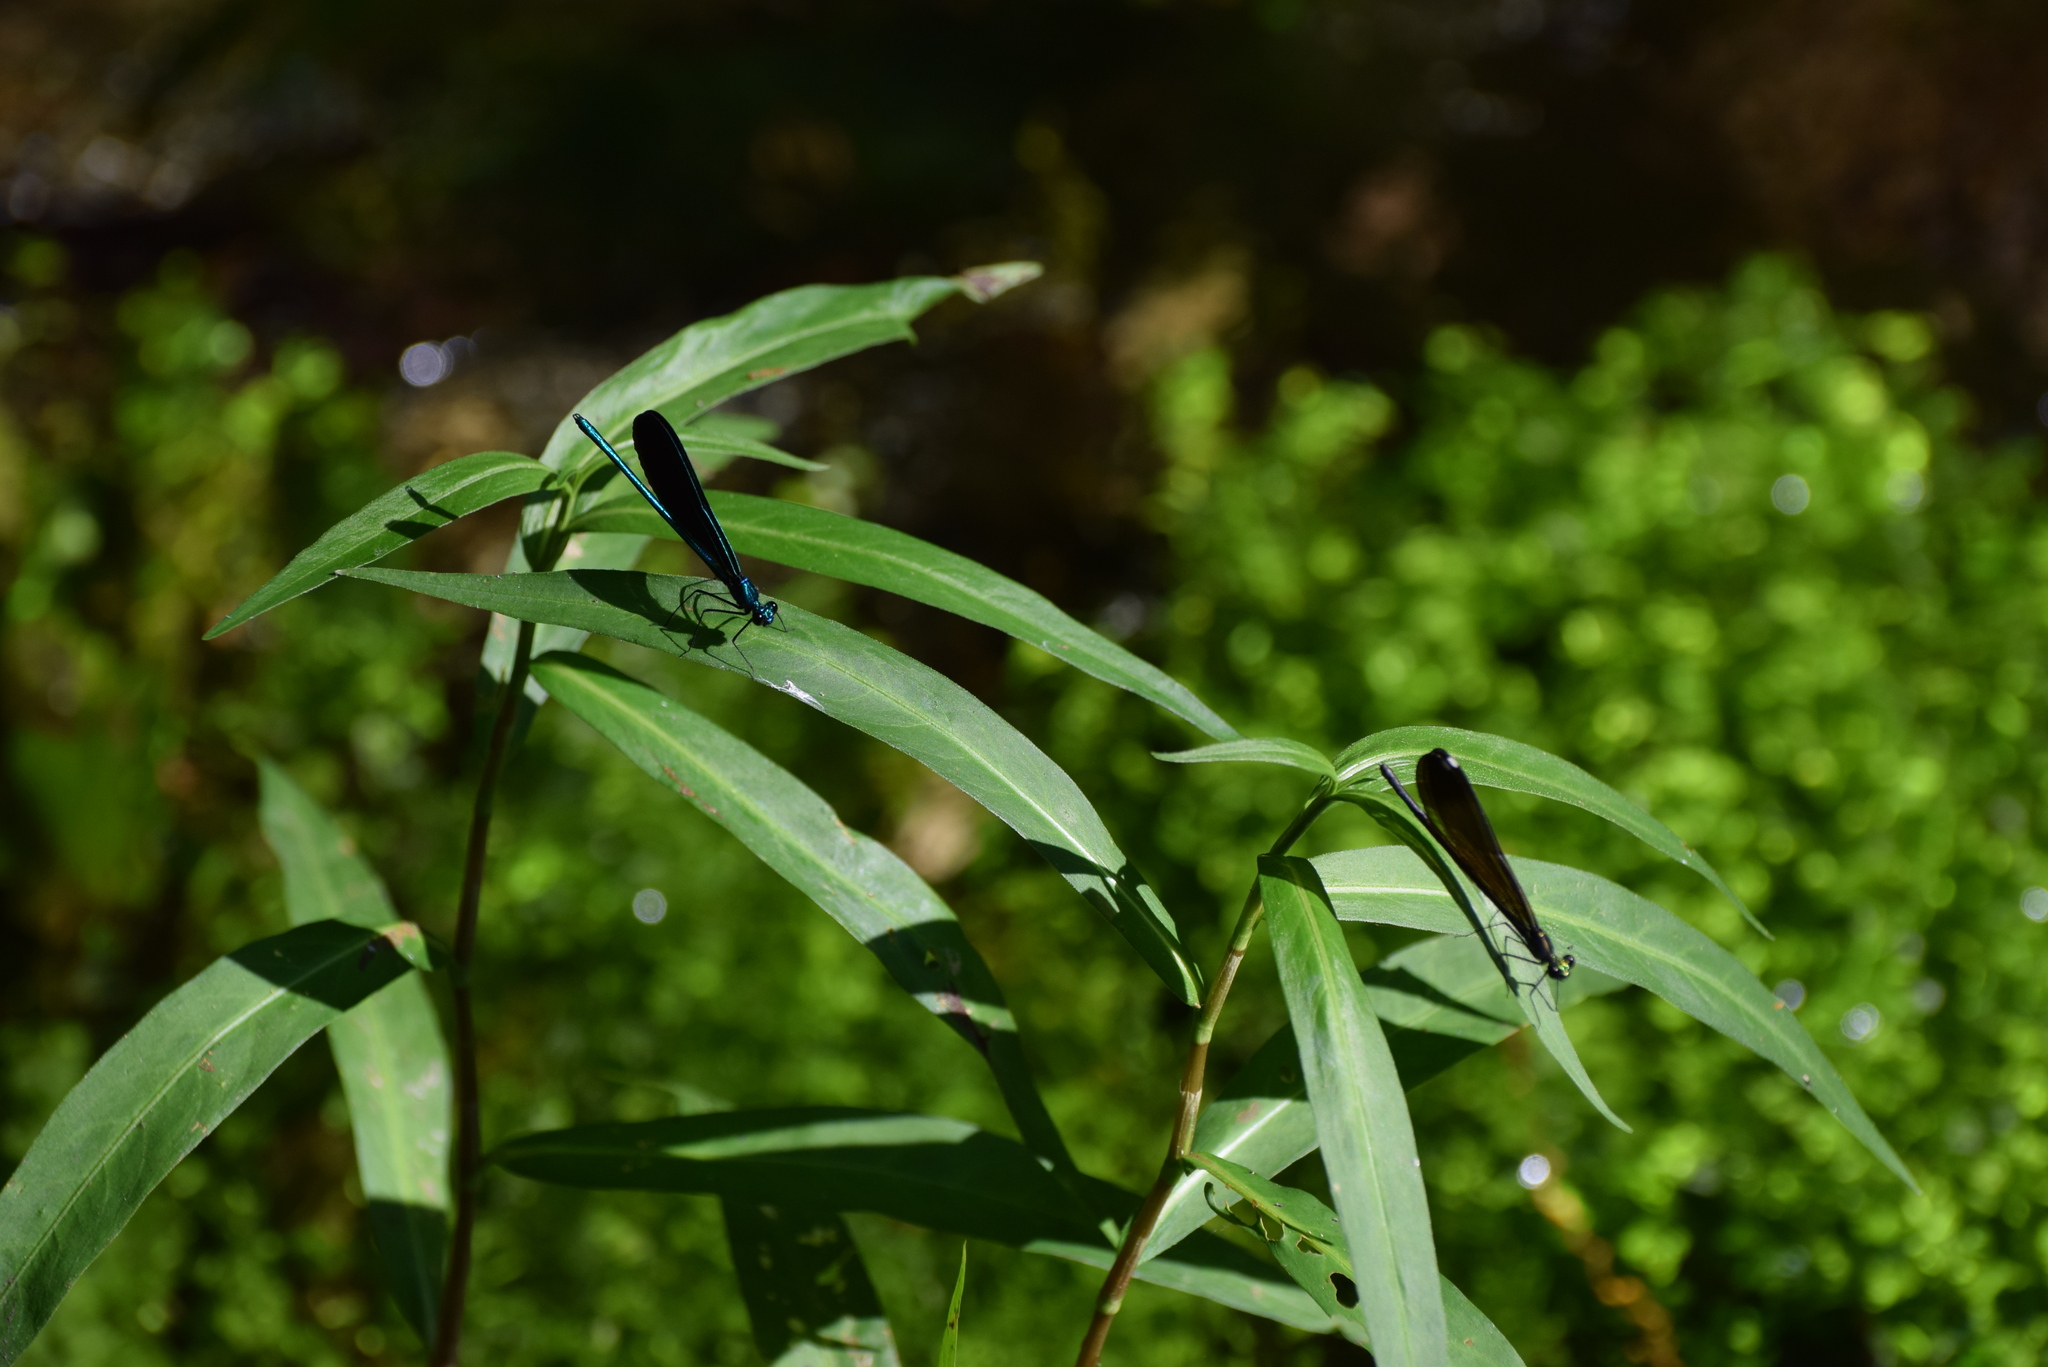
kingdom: Animalia
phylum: Arthropoda
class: Insecta
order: Odonata
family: Calopterygidae
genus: Calopteryx
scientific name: Calopteryx maculata
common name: Ebony jewelwing
